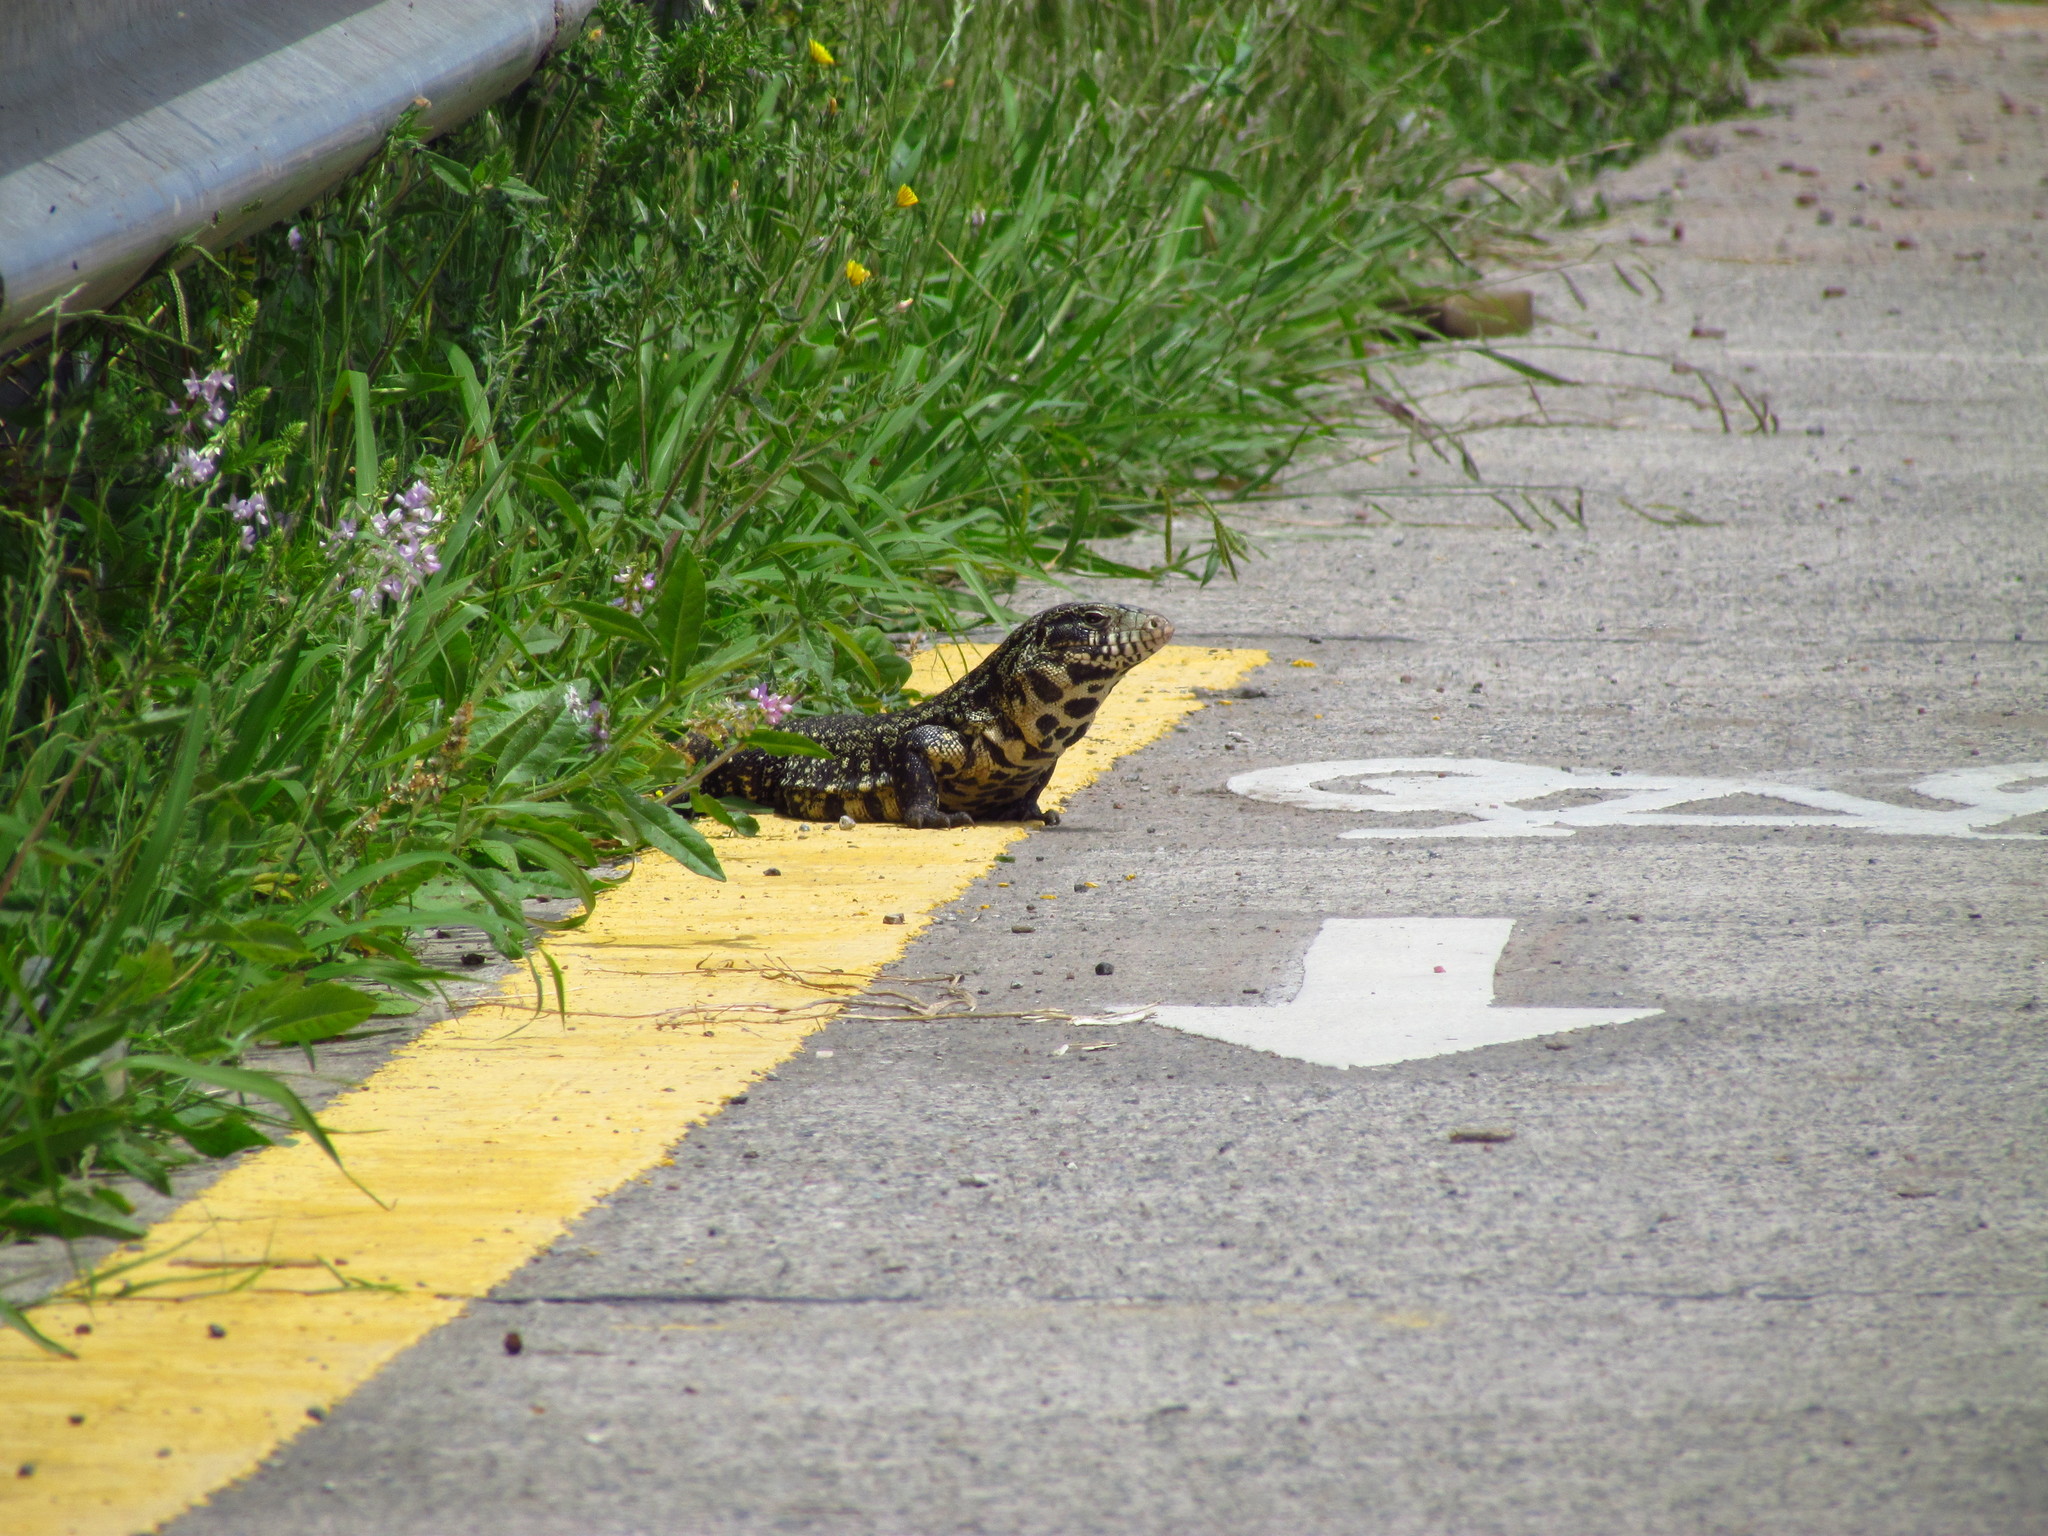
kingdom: Animalia
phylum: Chordata
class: Squamata
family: Teiidae
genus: Salvator
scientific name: Salvator merianae
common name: Argentine black and white tegu
